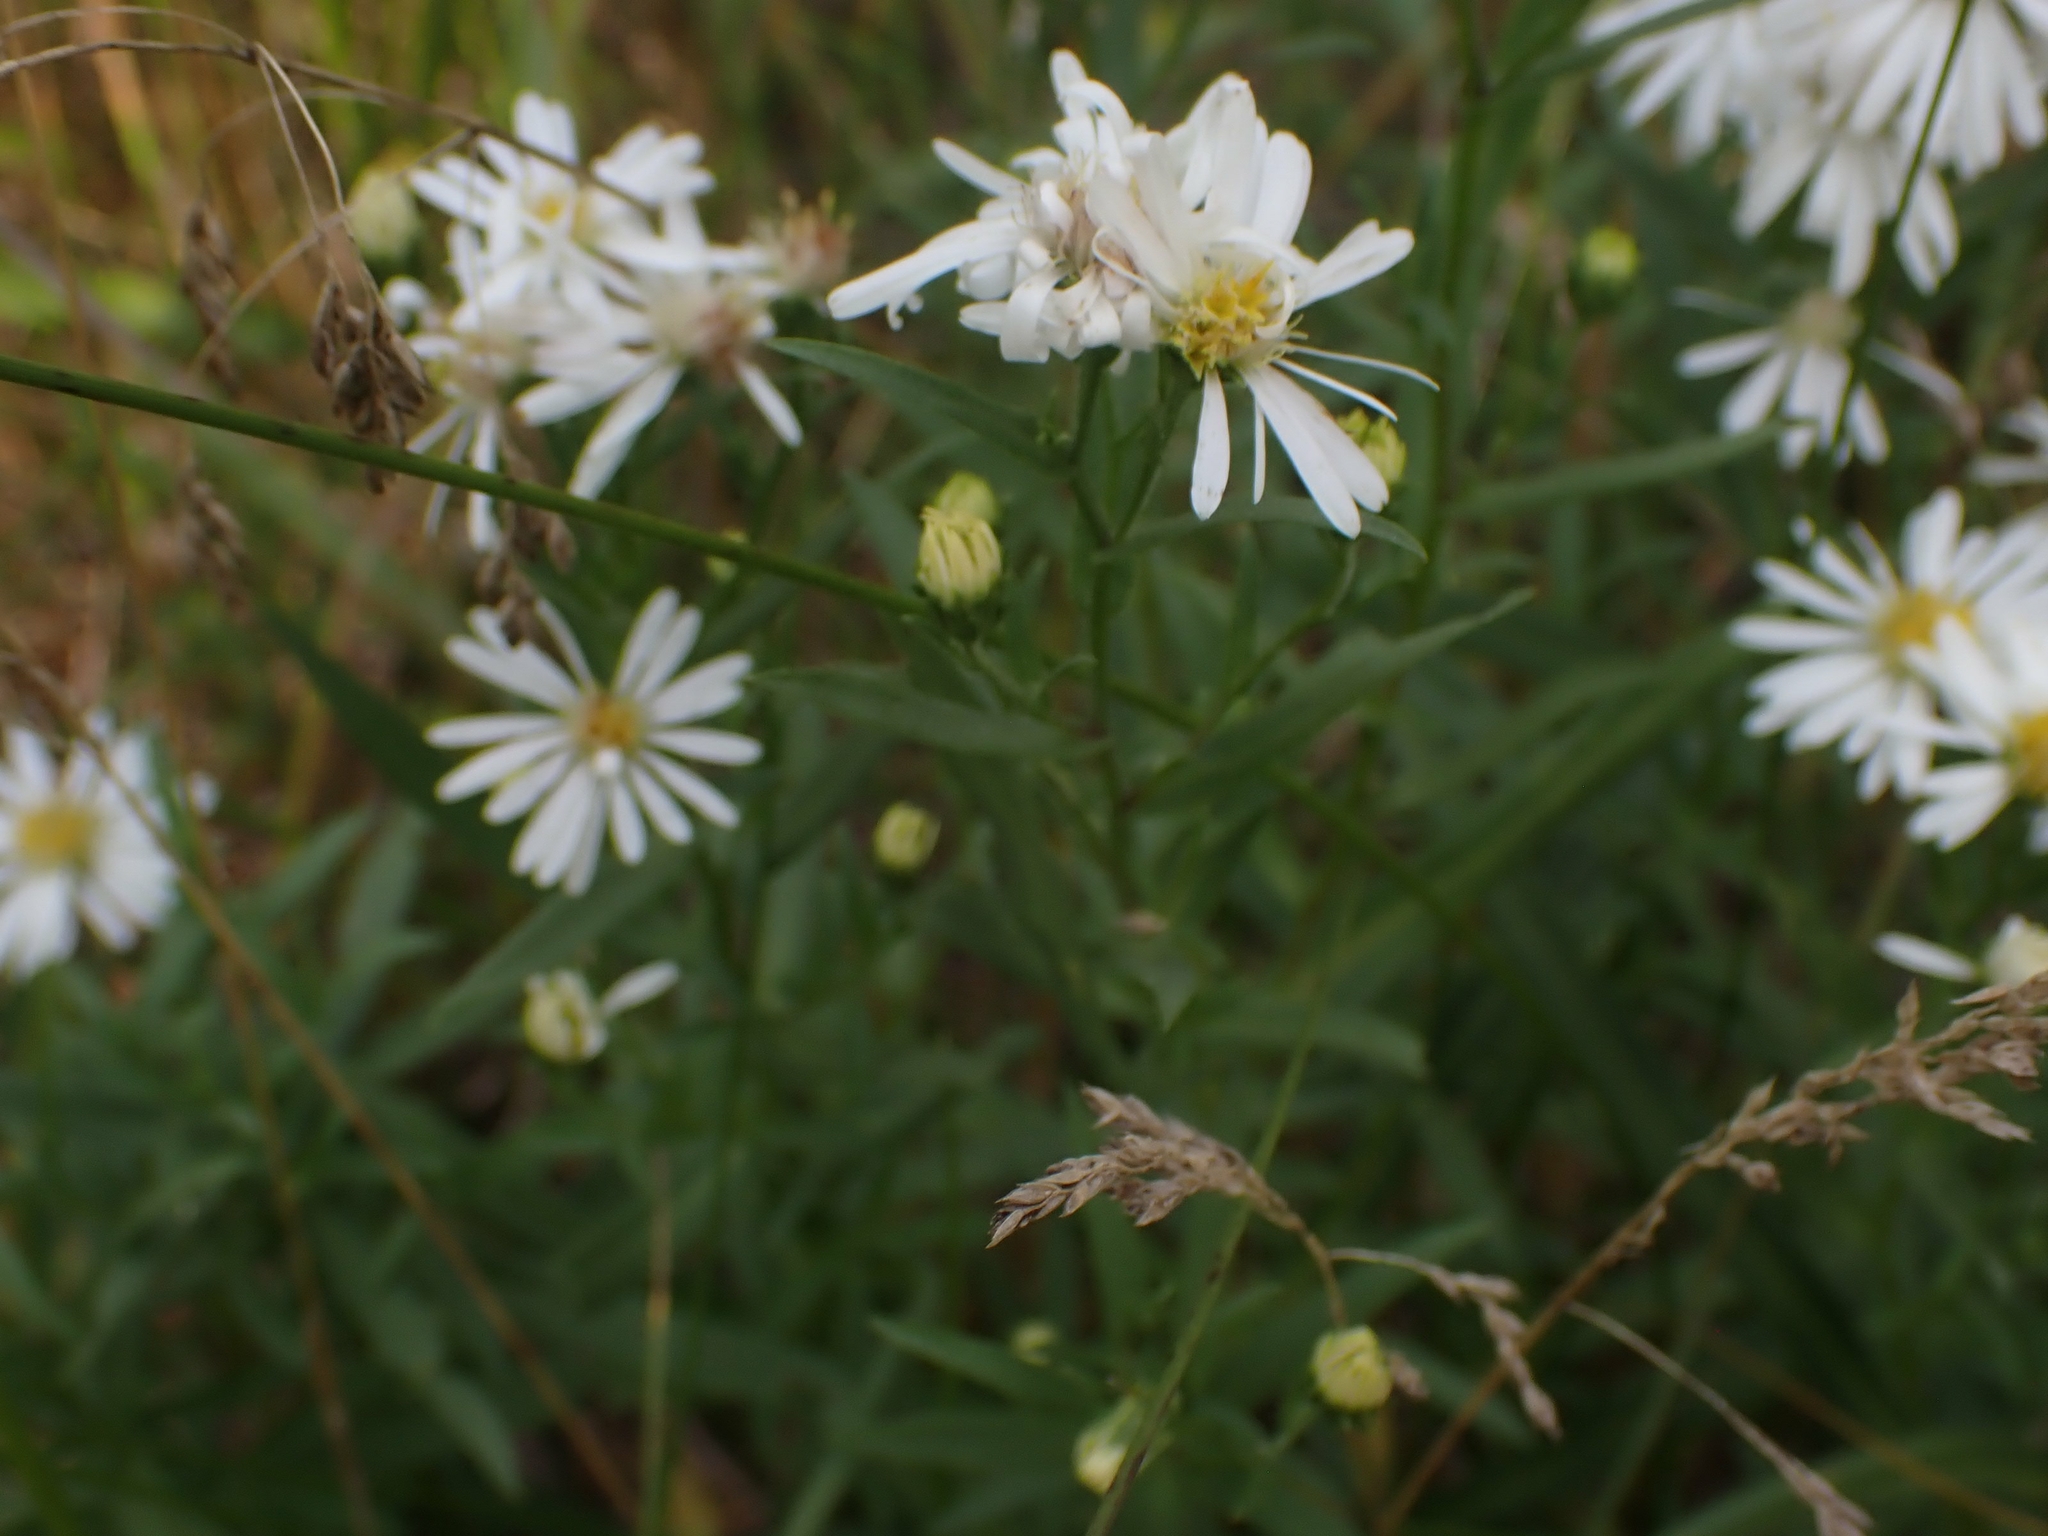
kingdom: Plantae
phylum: Tracheophyta
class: Magnoliopsida
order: Asterales
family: Asteraceae
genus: Symphyotrichum
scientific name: Symphyotrichum lanceolatum
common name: Panicled aster
